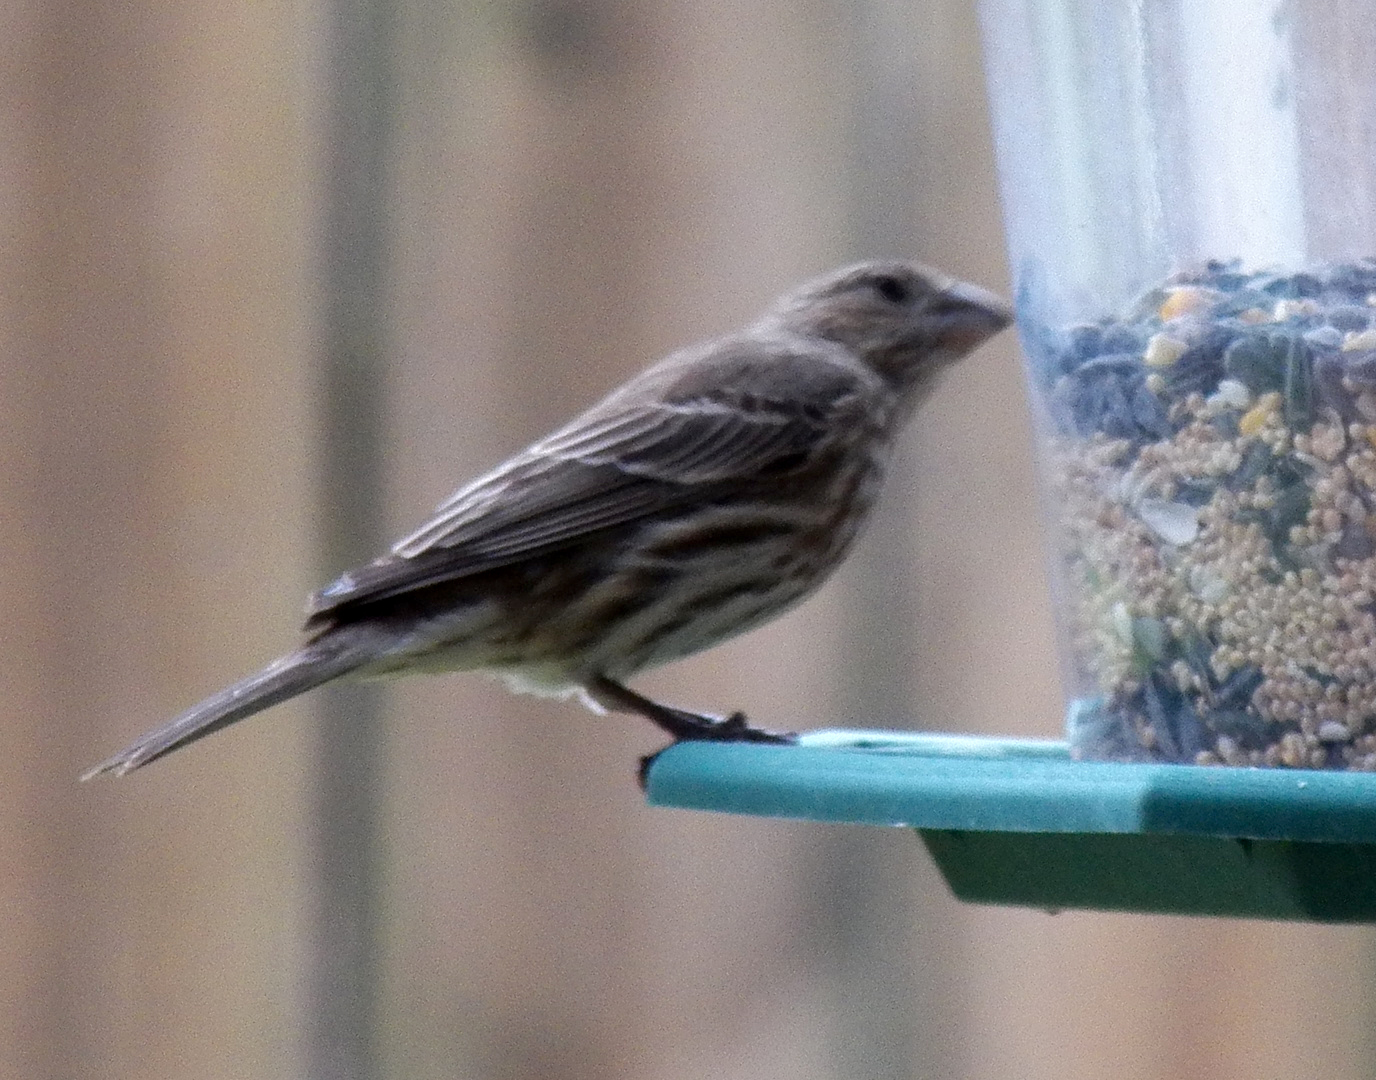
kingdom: Animalia
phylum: Chordata
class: Aves
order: Passeriformes
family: Fringillidae
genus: Haemorhous
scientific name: Haemorhous mexicanus
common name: House finch
